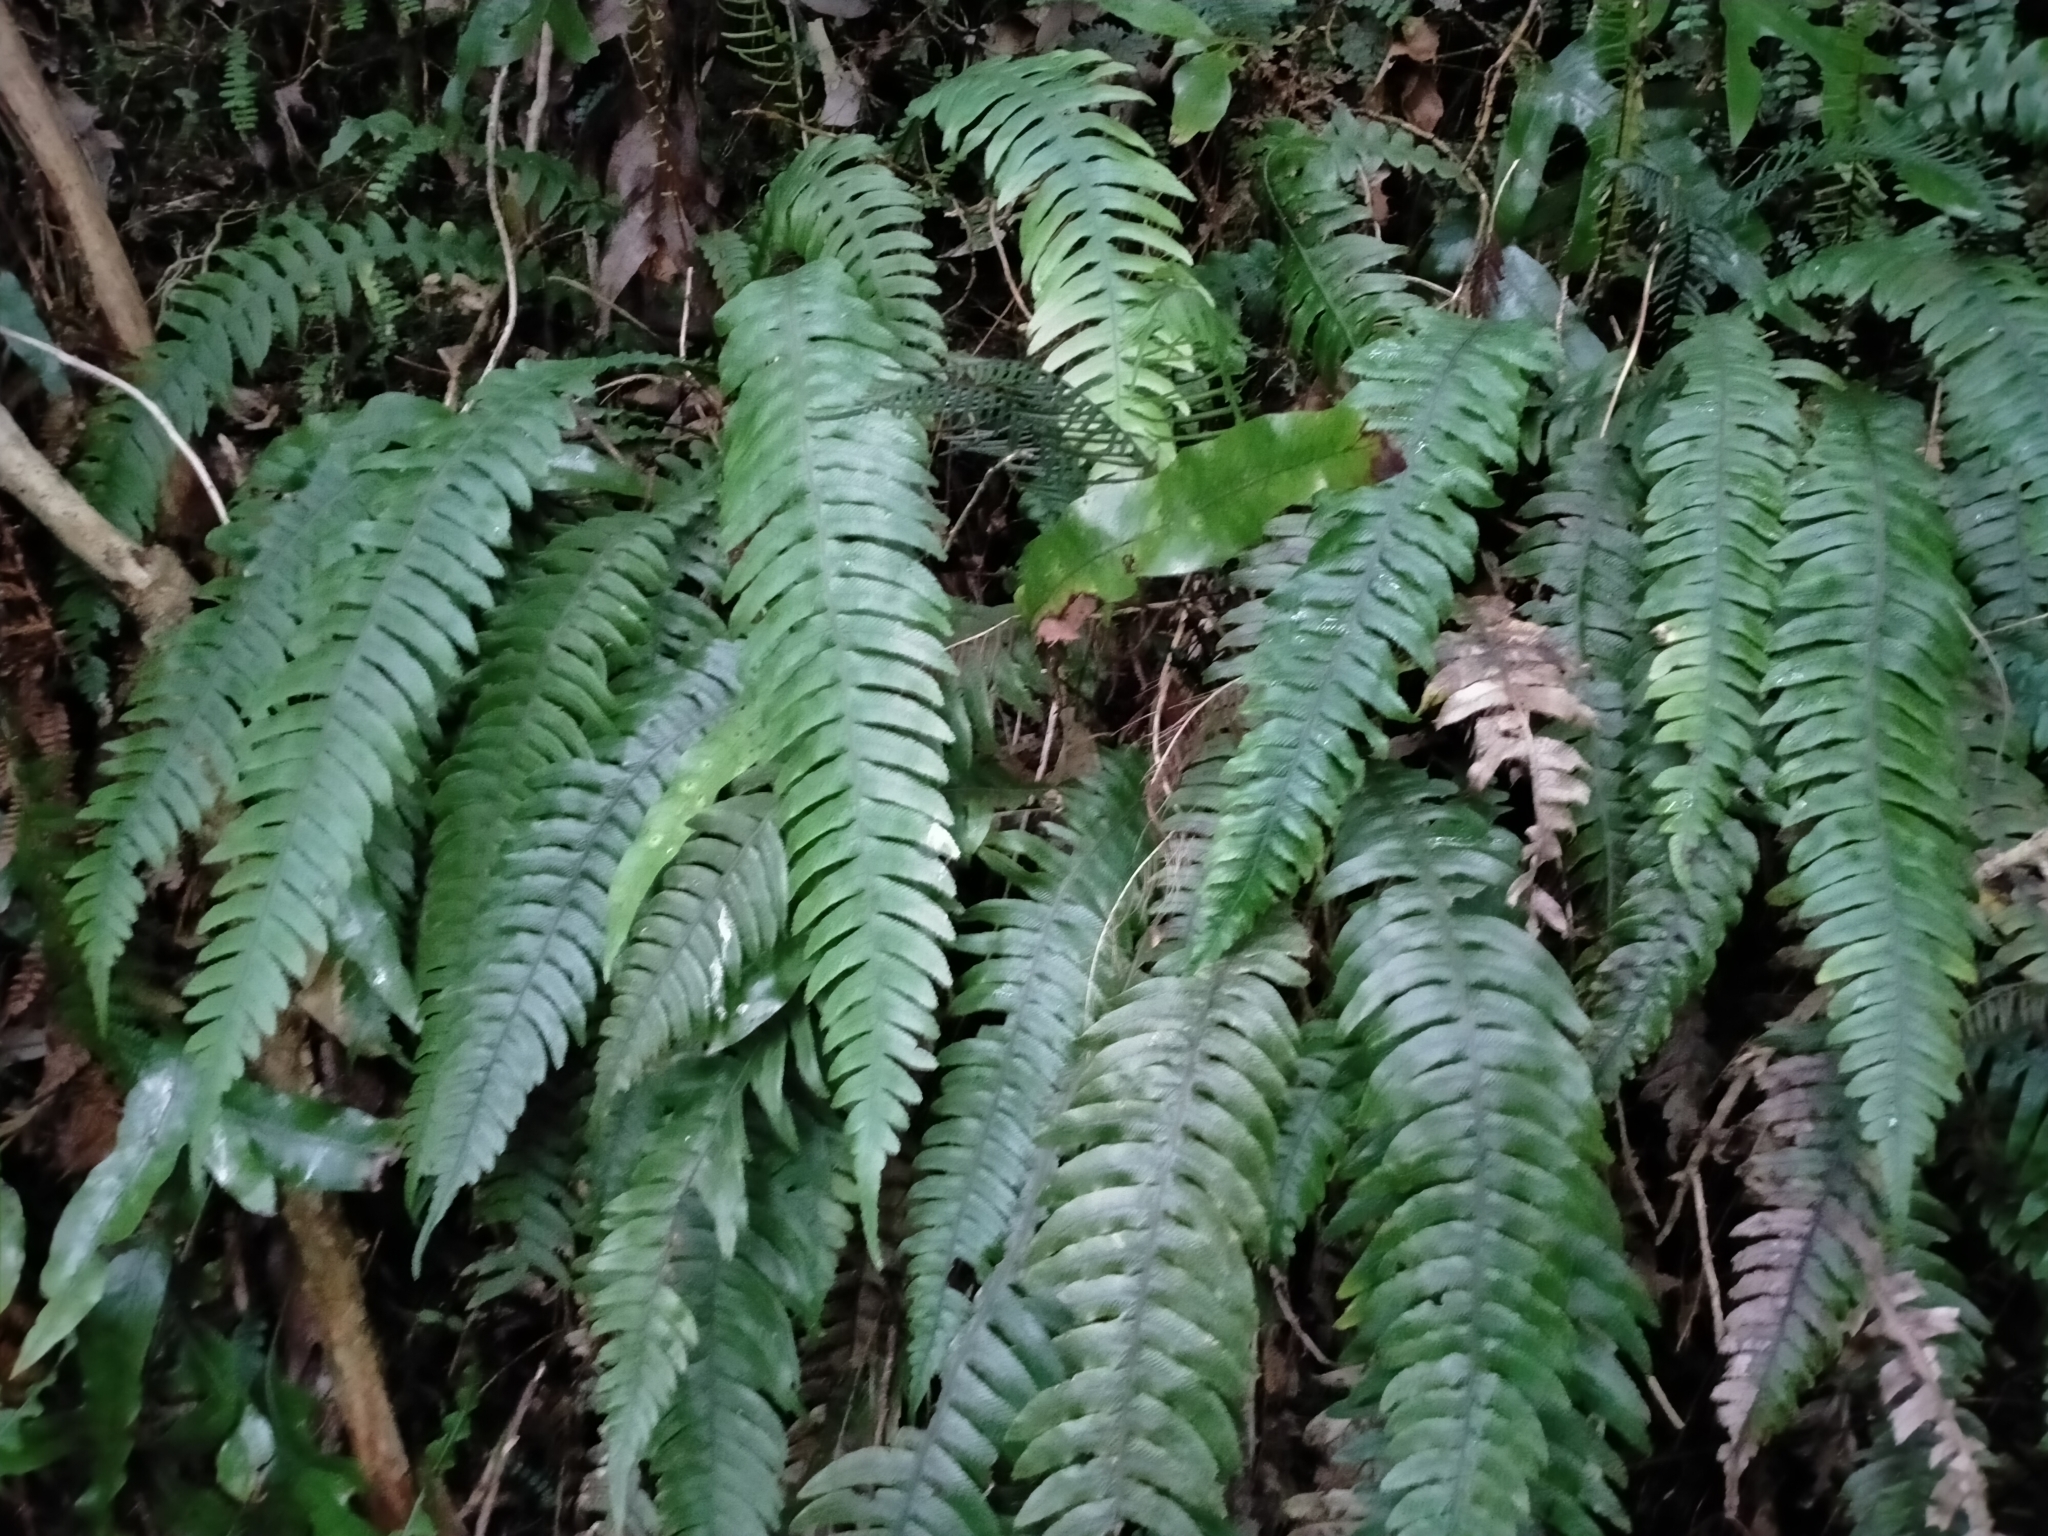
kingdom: Plantae
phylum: Tracheophyta
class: Polypodiopsida
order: Polypodiales
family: Blechnaceae
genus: Austroblechnum
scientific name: Austroblechnum lanceolatum
